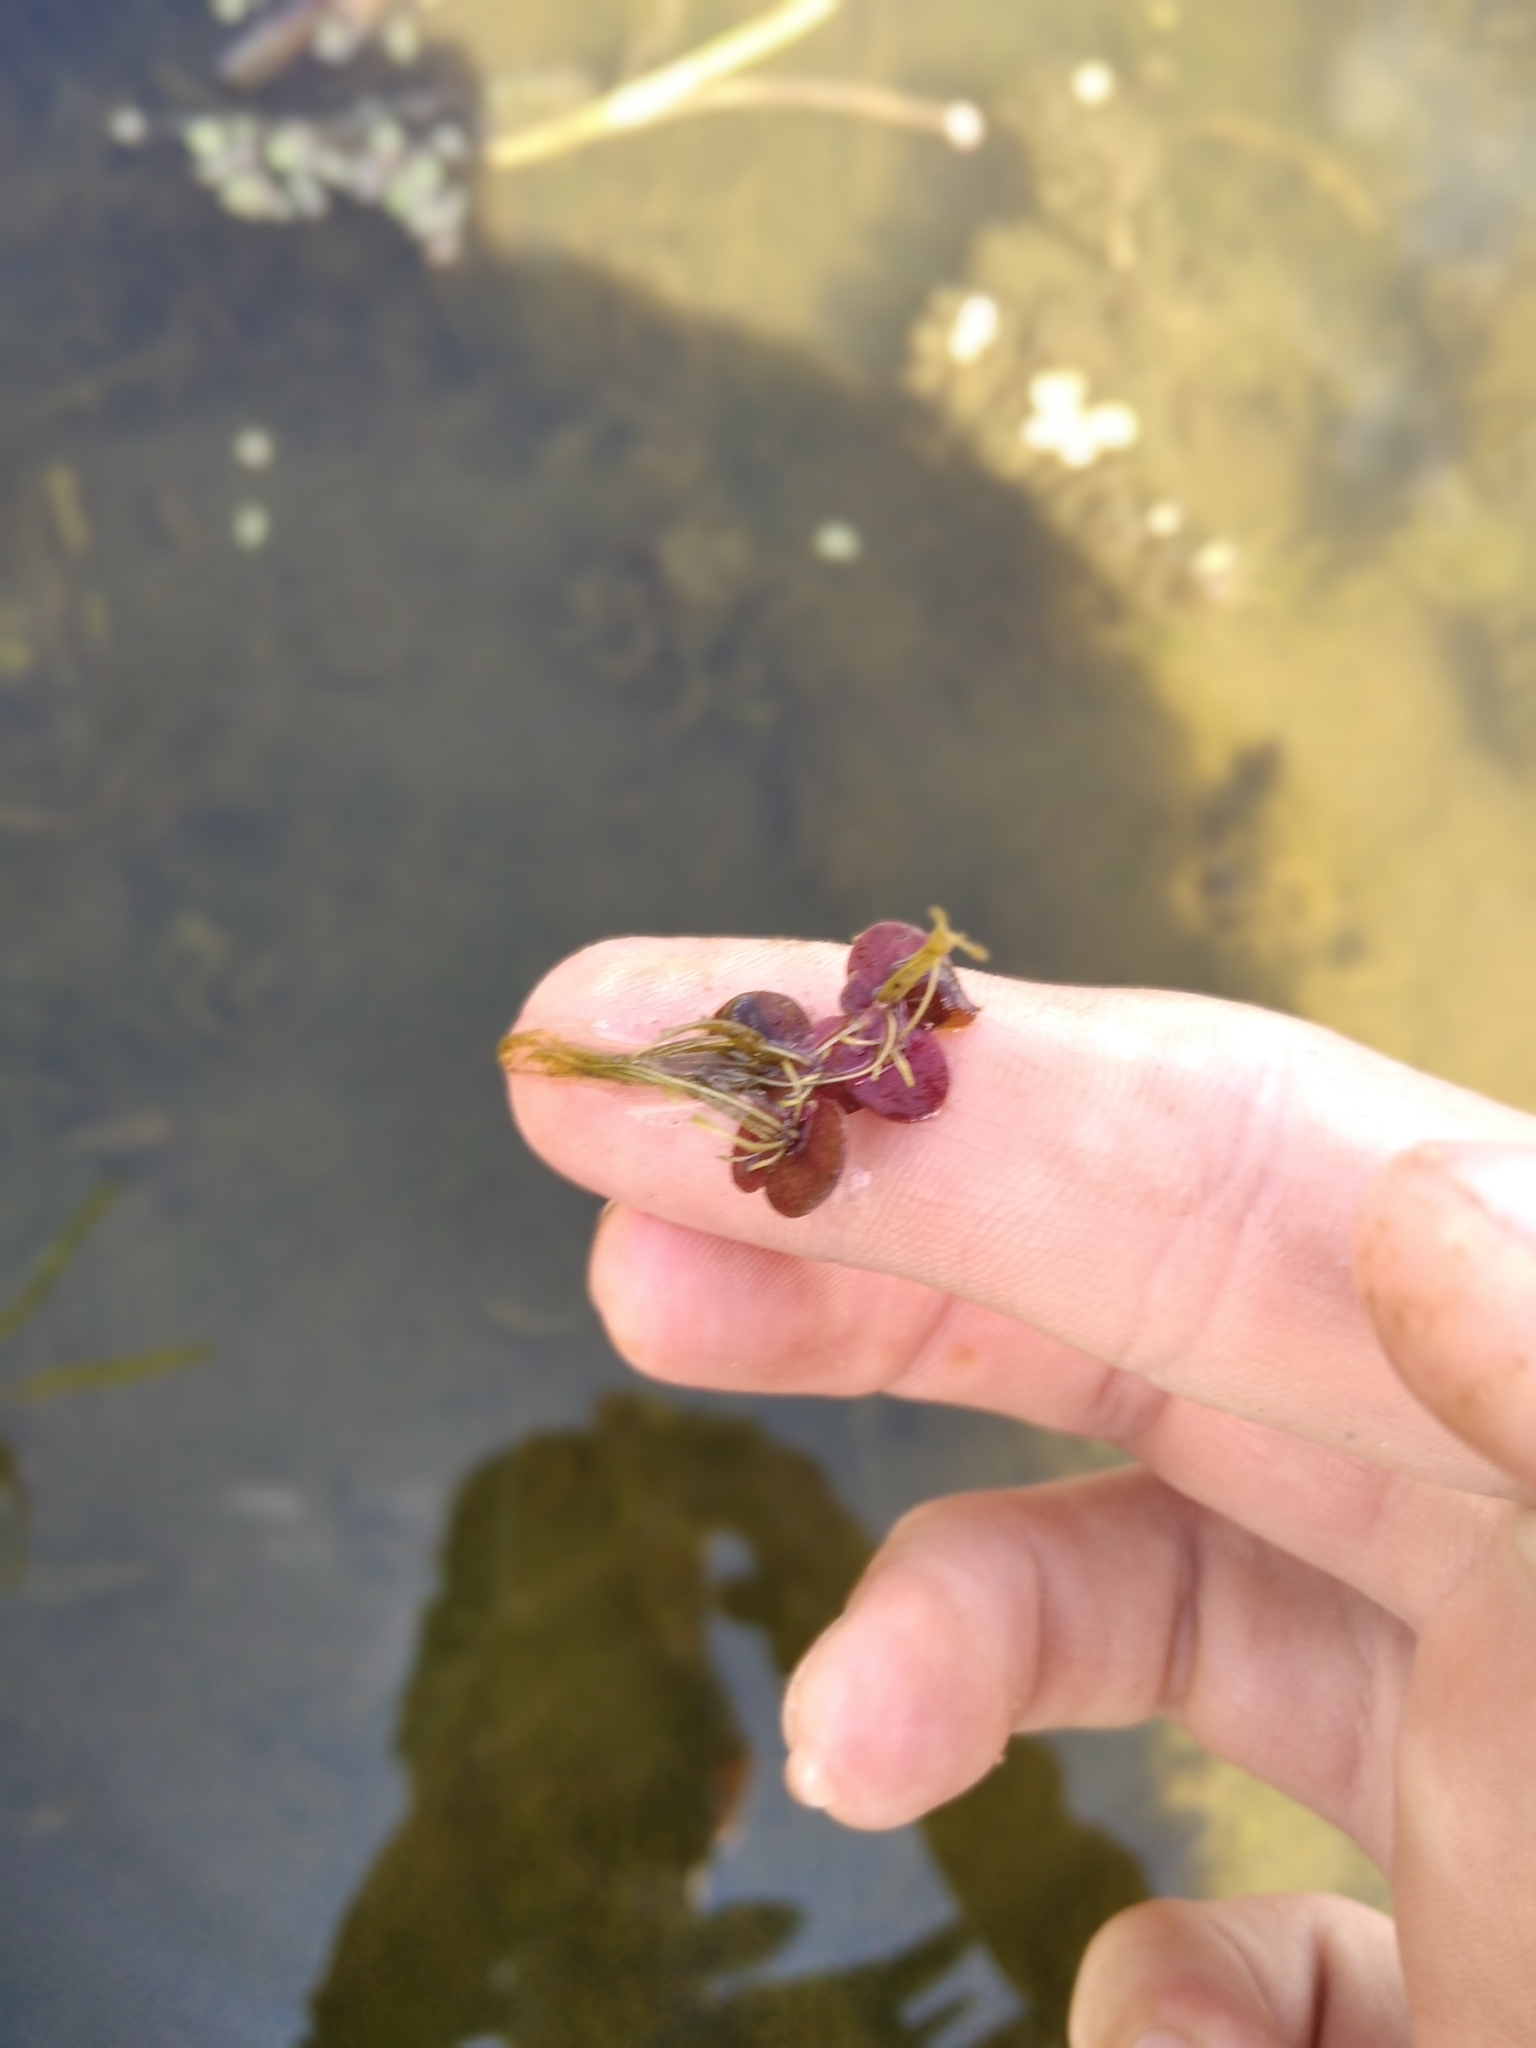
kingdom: Plantae
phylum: Tracheophyta
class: Liliopsida
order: Alismatales
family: Araceae
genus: Spirodela
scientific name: Spirodela polyrhiza
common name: Great duckweed
